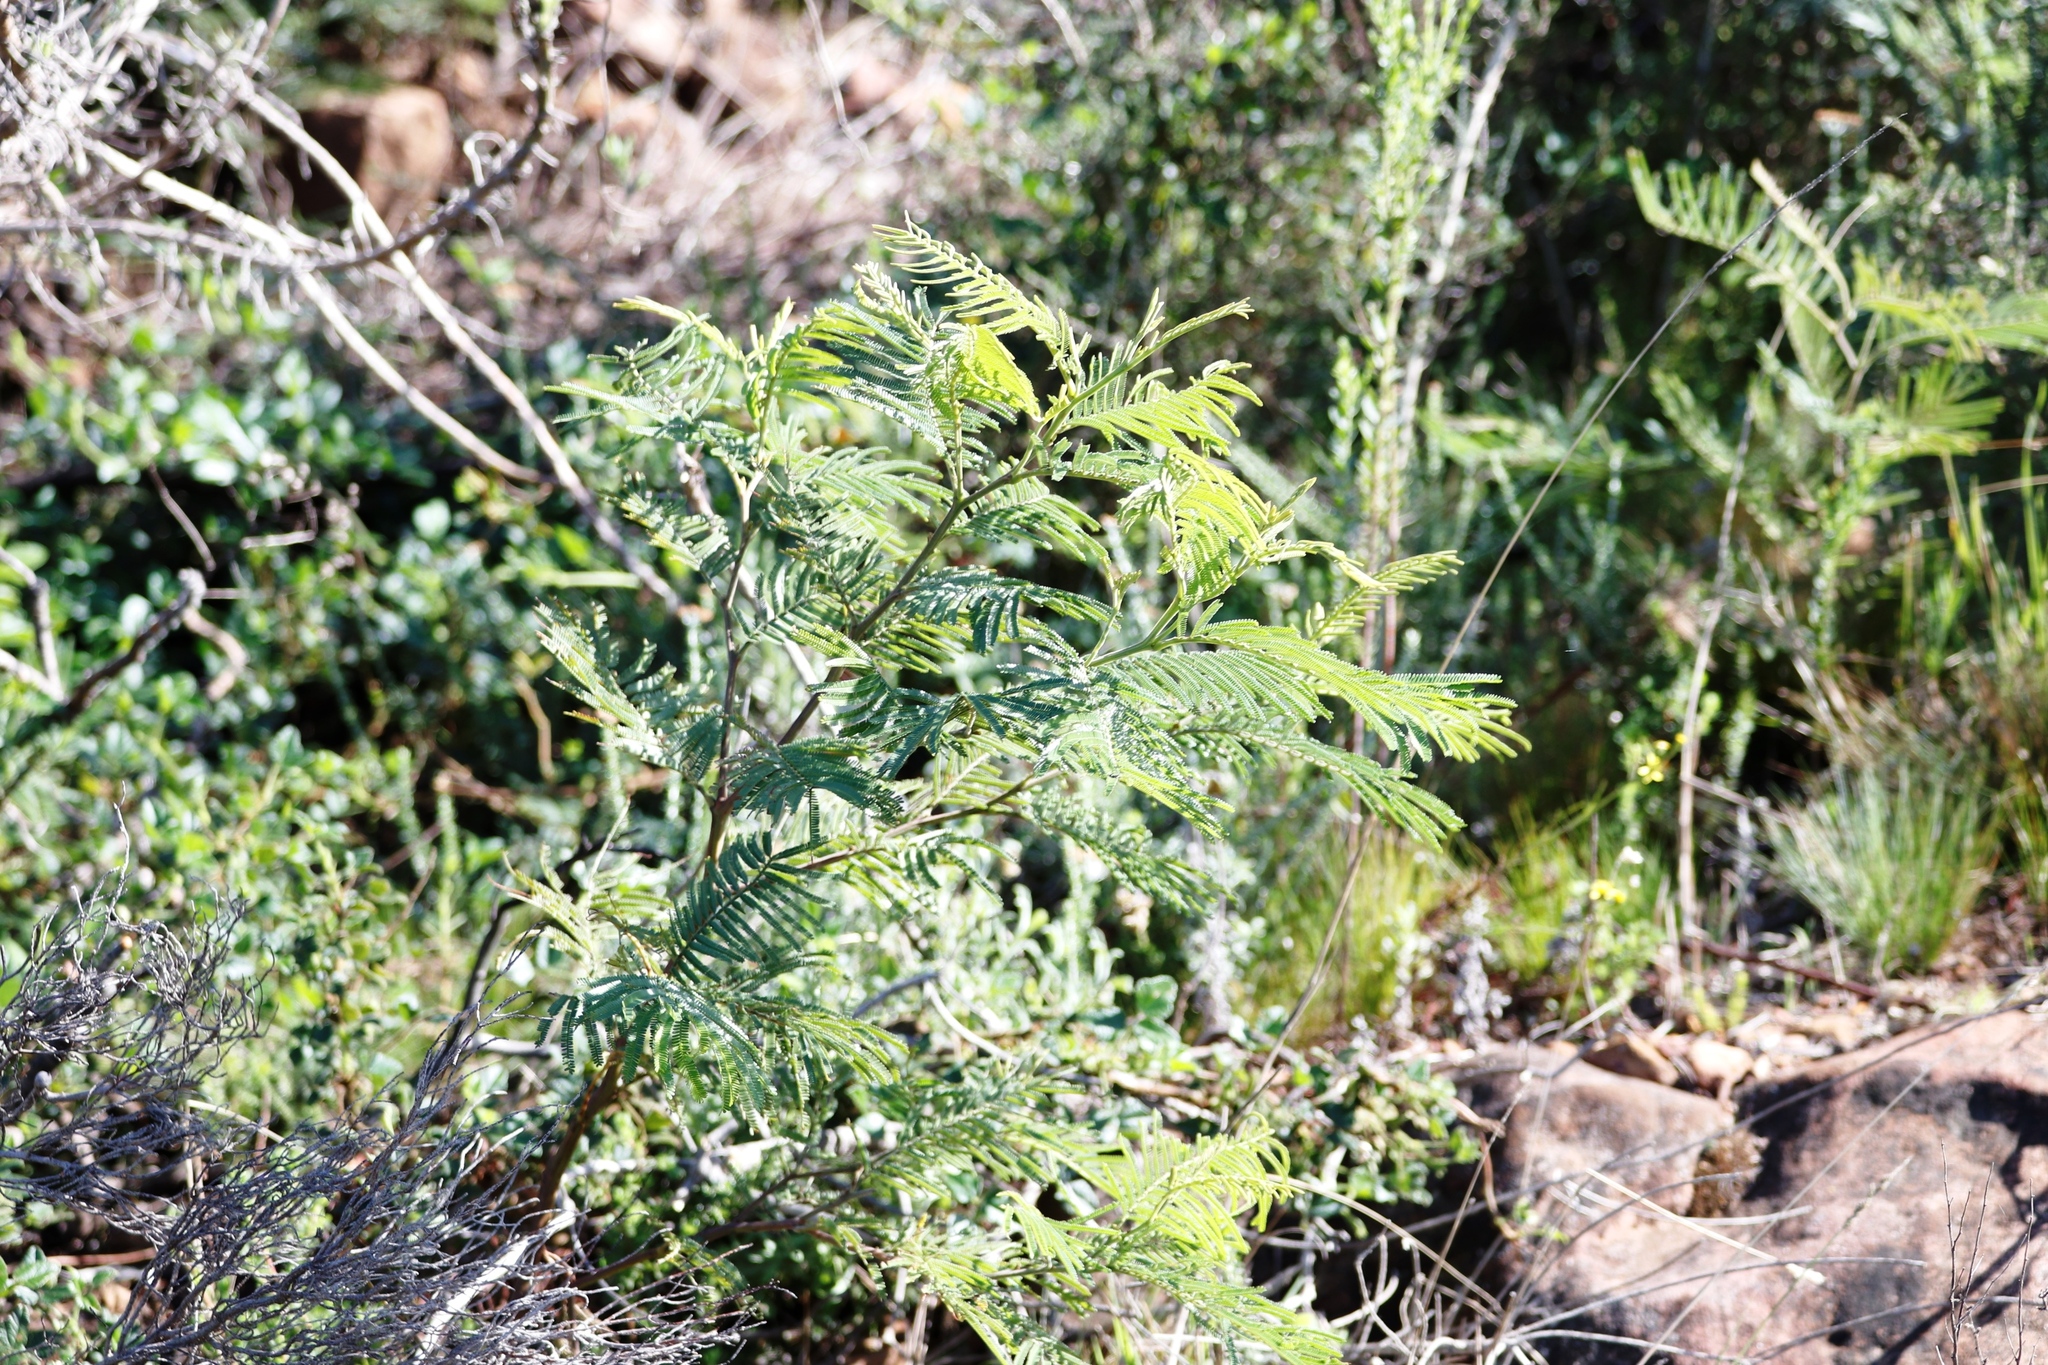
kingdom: Plantae
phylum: Tracheophyta
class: Magnoliopsida
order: Fabales
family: Fabaceae
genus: Acacia
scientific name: Acacia mearnsii
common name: Black wattle
